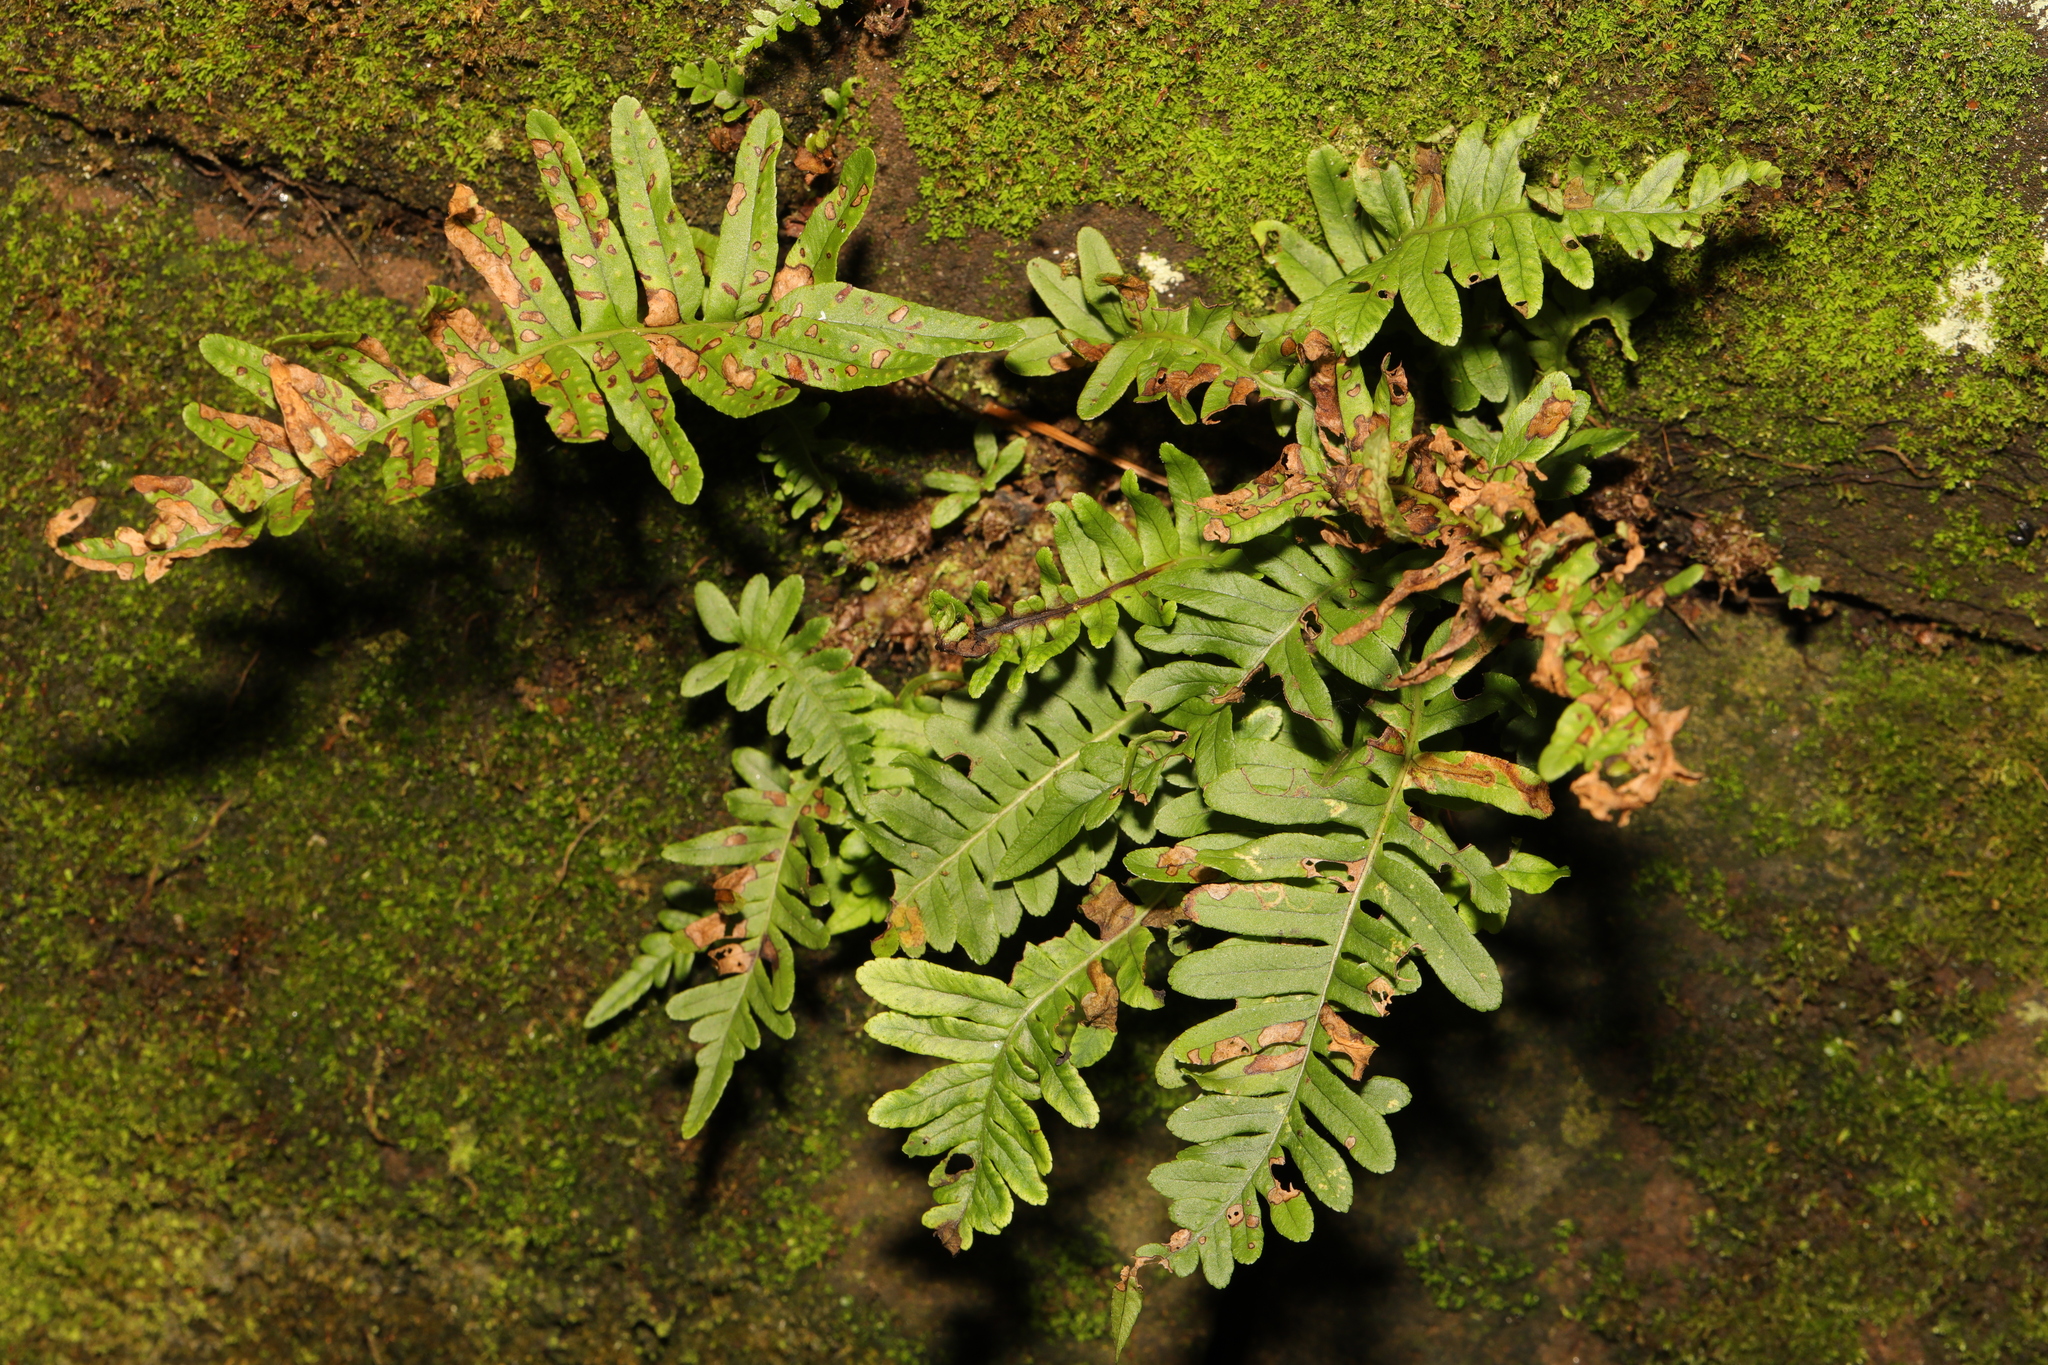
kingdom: Plantae
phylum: Tracheophyta
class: Polypodiopsida
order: Polypodiales
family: Polypodiaceae
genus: Polypodium
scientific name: Polypodium
